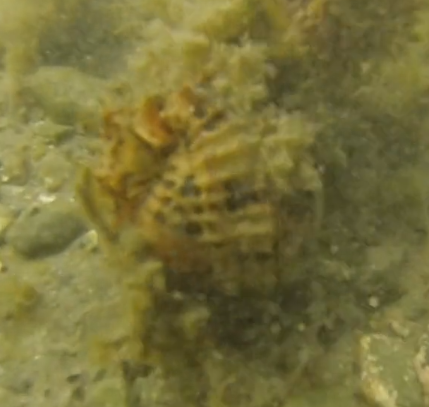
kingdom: Animalia
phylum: Chordata
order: Syngnathiformes
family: Syngnathidae
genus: Hippocampus
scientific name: Hippocampus abdominalis
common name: Big-belly seahorse
